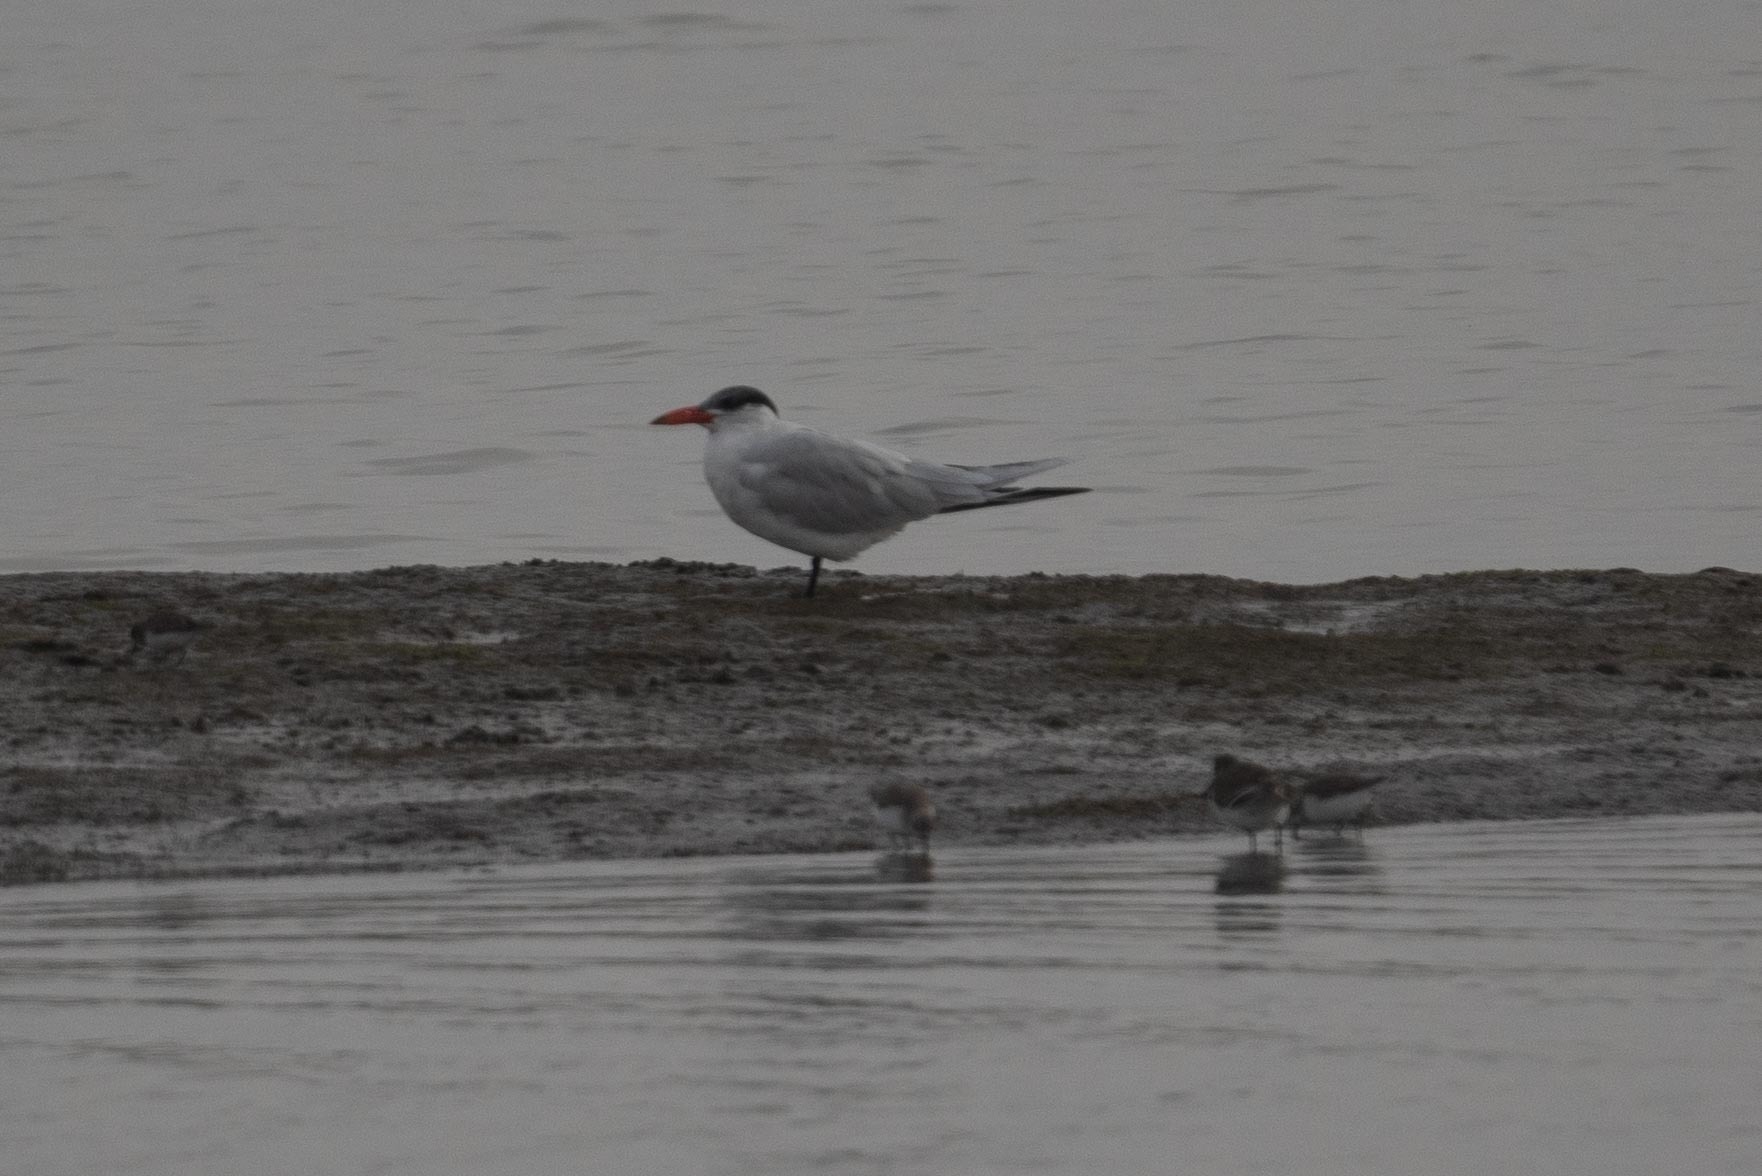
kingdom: Animalia
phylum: Chordata
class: Aves
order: Charadriiformes
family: Laridae
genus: Hydroprogne
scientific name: Hydroprogne caspia
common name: Caspian tern
